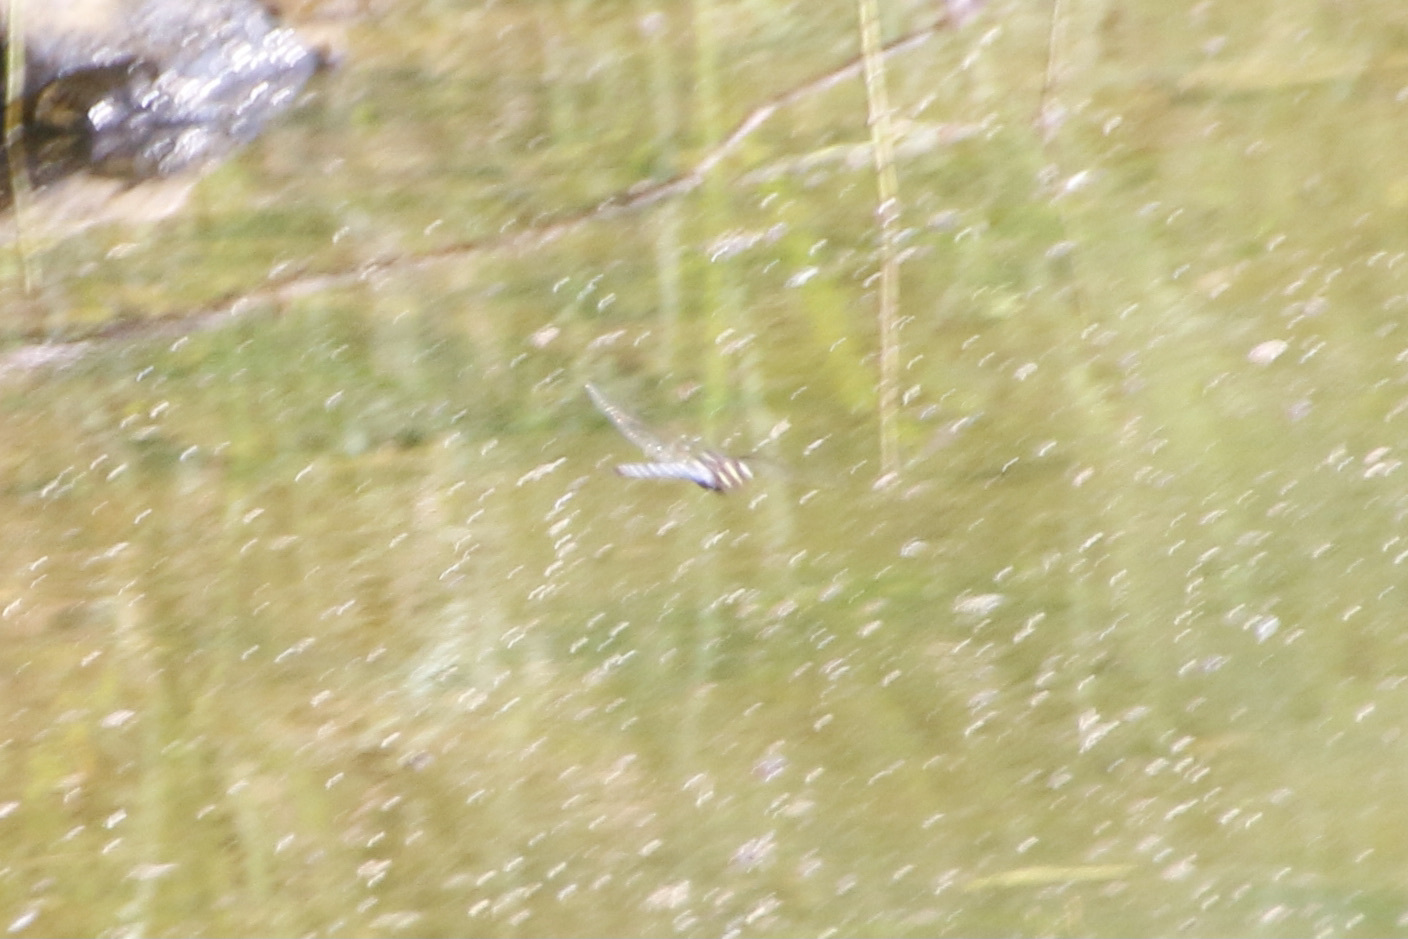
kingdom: Animalia
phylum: Arthropoda
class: Insecta
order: Odonata
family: Aeshnidae
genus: Basiaeschna
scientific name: Basiaeschna janata
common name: Springtime darner
